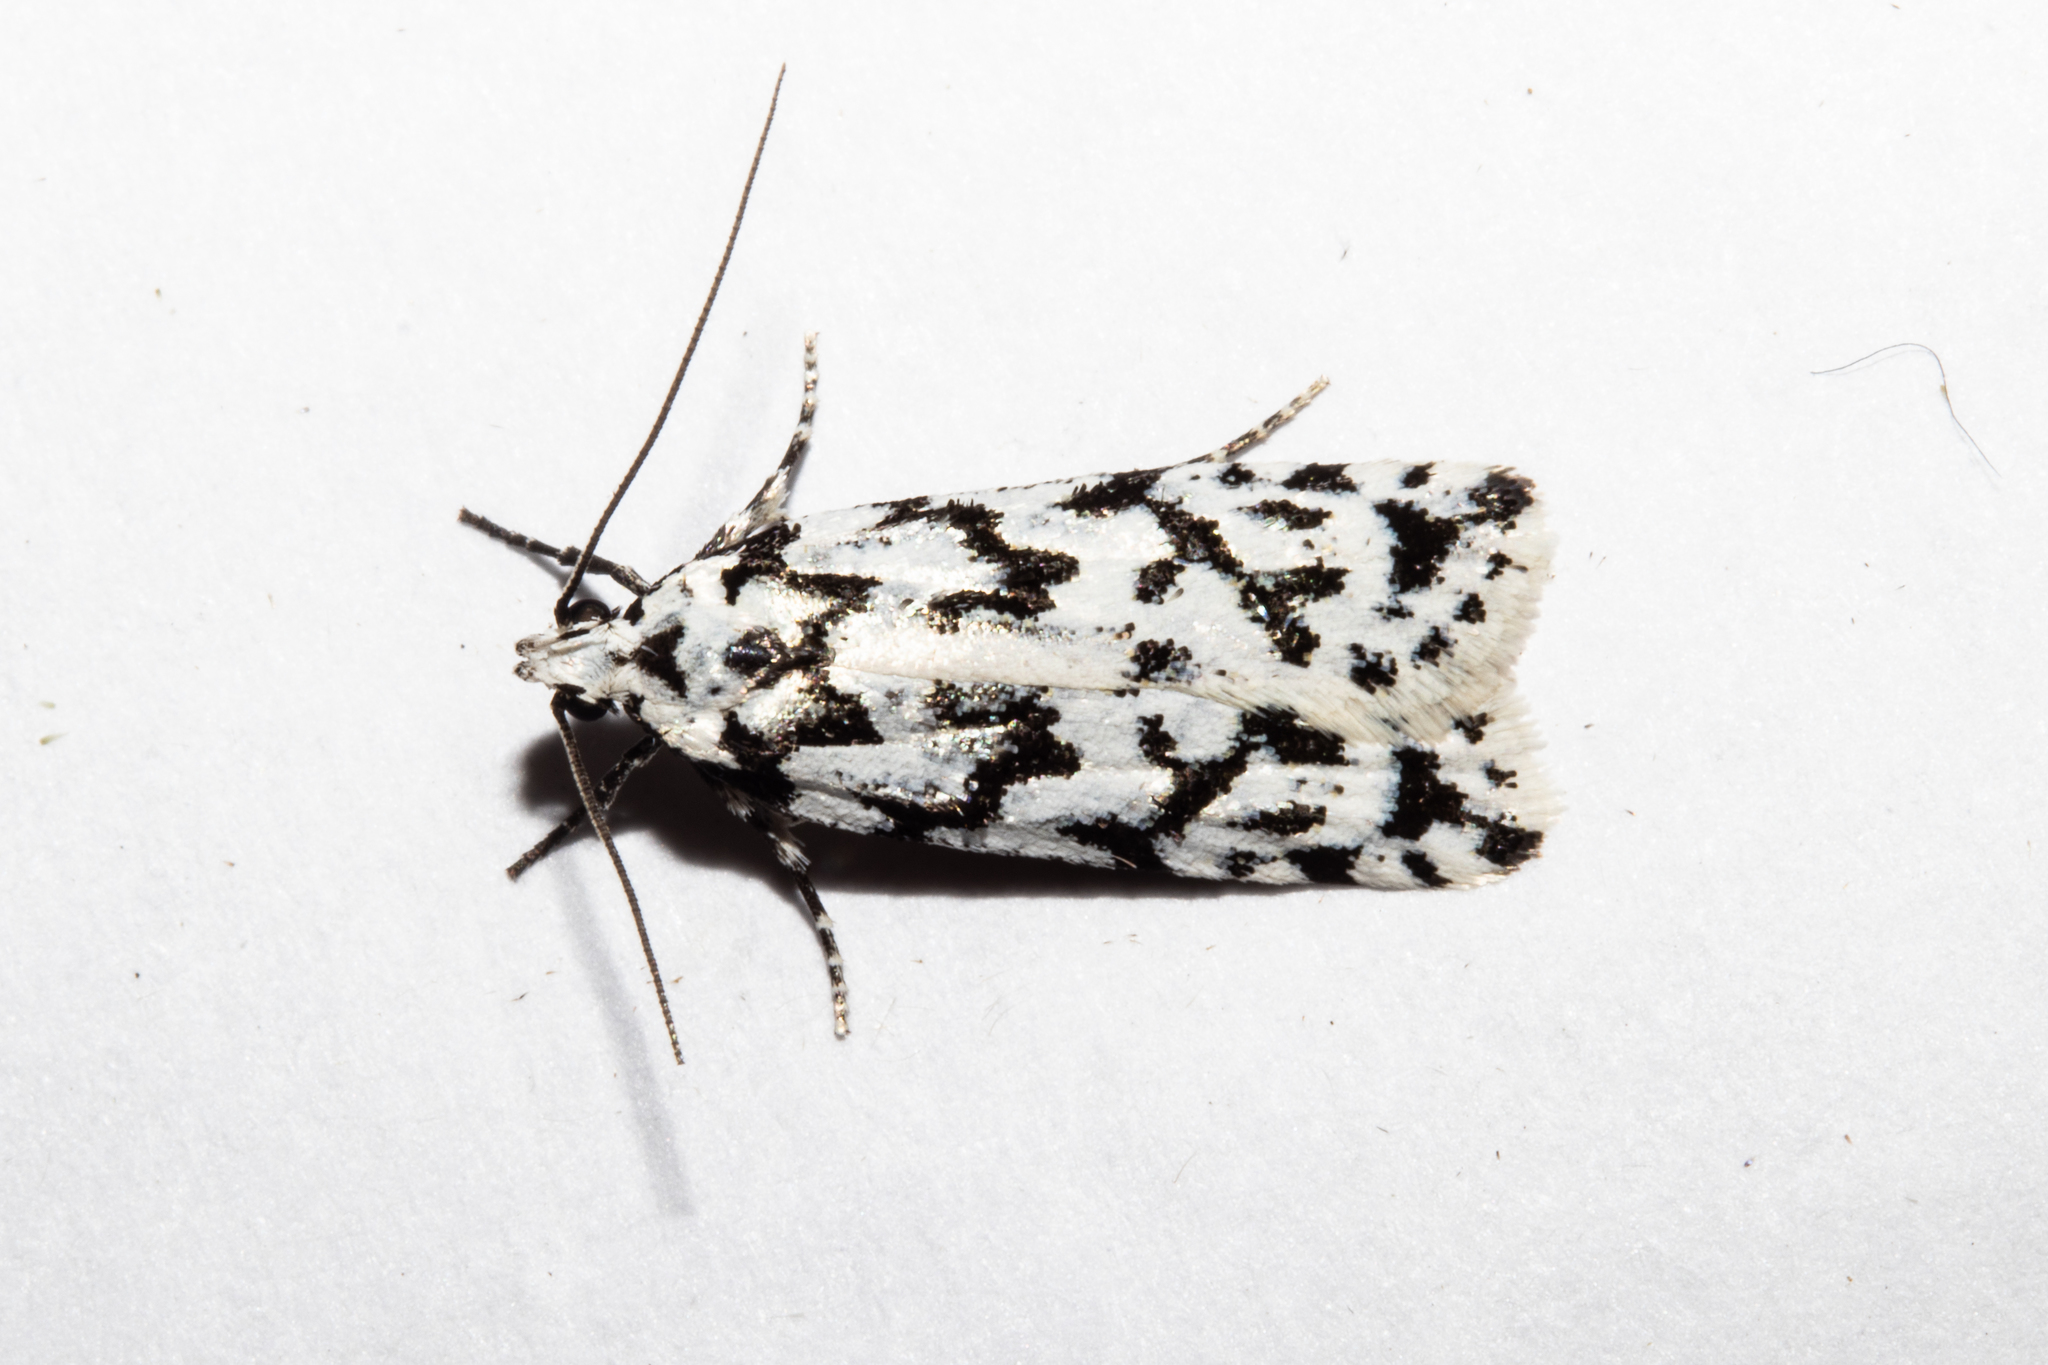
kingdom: Animalia
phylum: Arthropoda
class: Insecta
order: Lepidoptera
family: Oecophoridae
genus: Izatha
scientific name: Izatha katadiktya
